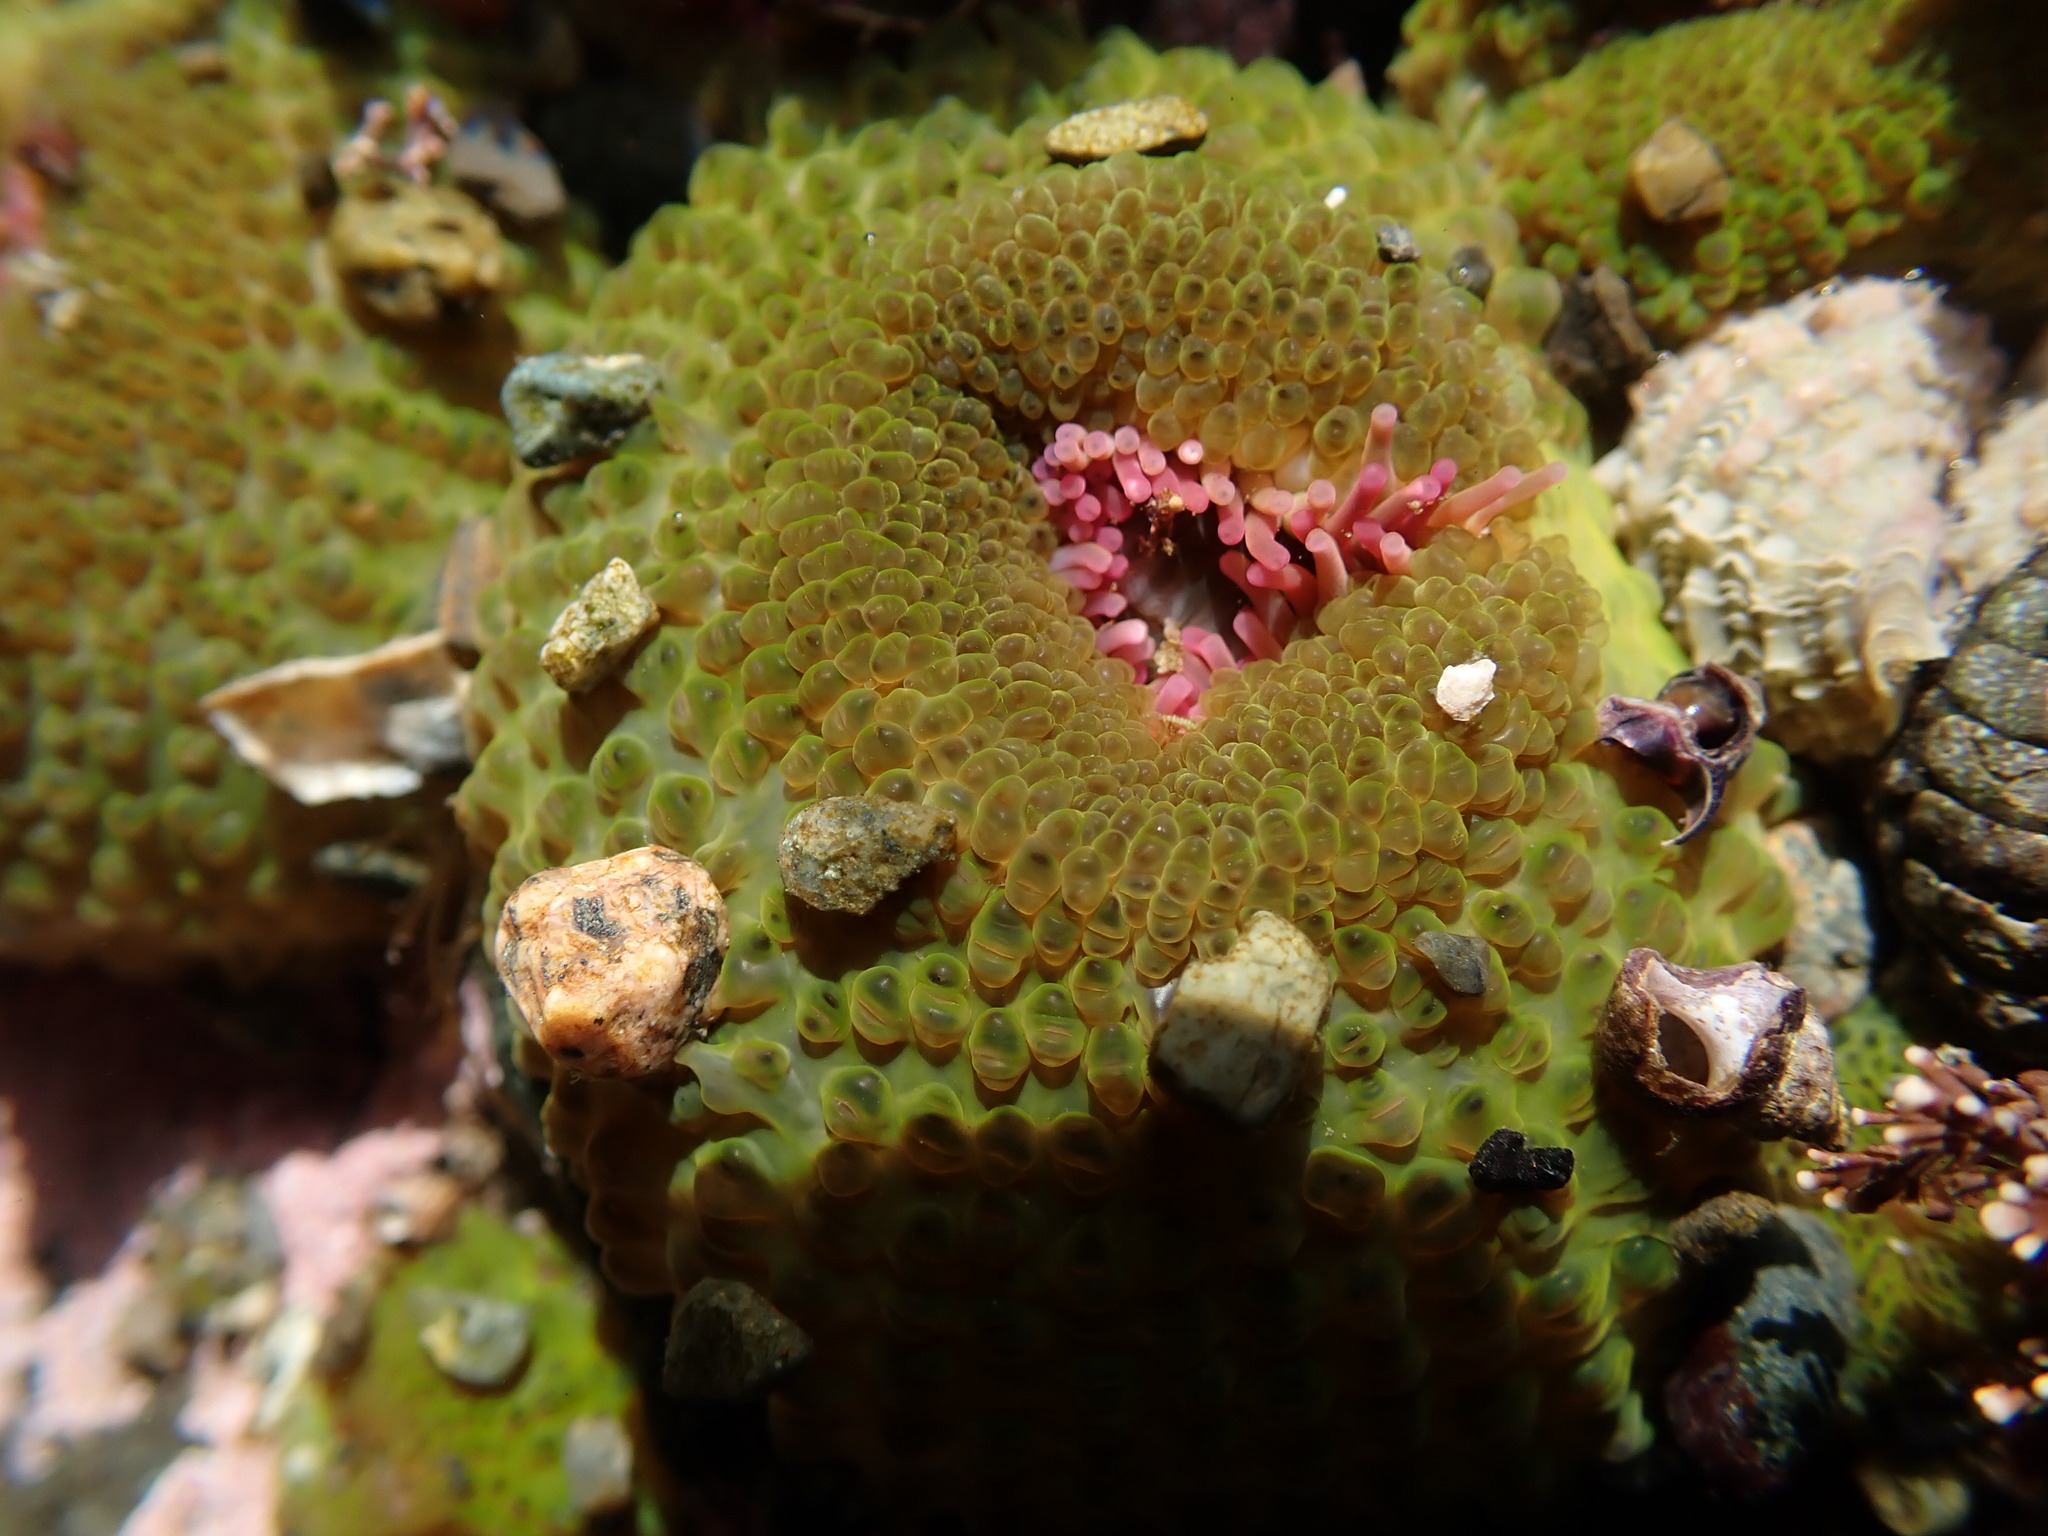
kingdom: Animalia
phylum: Cnidaria
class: Anthozoa
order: Actiniaria
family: Actiniidae
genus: Anthopleura
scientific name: Anthopleura elegantissima
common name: Clonal anemone
